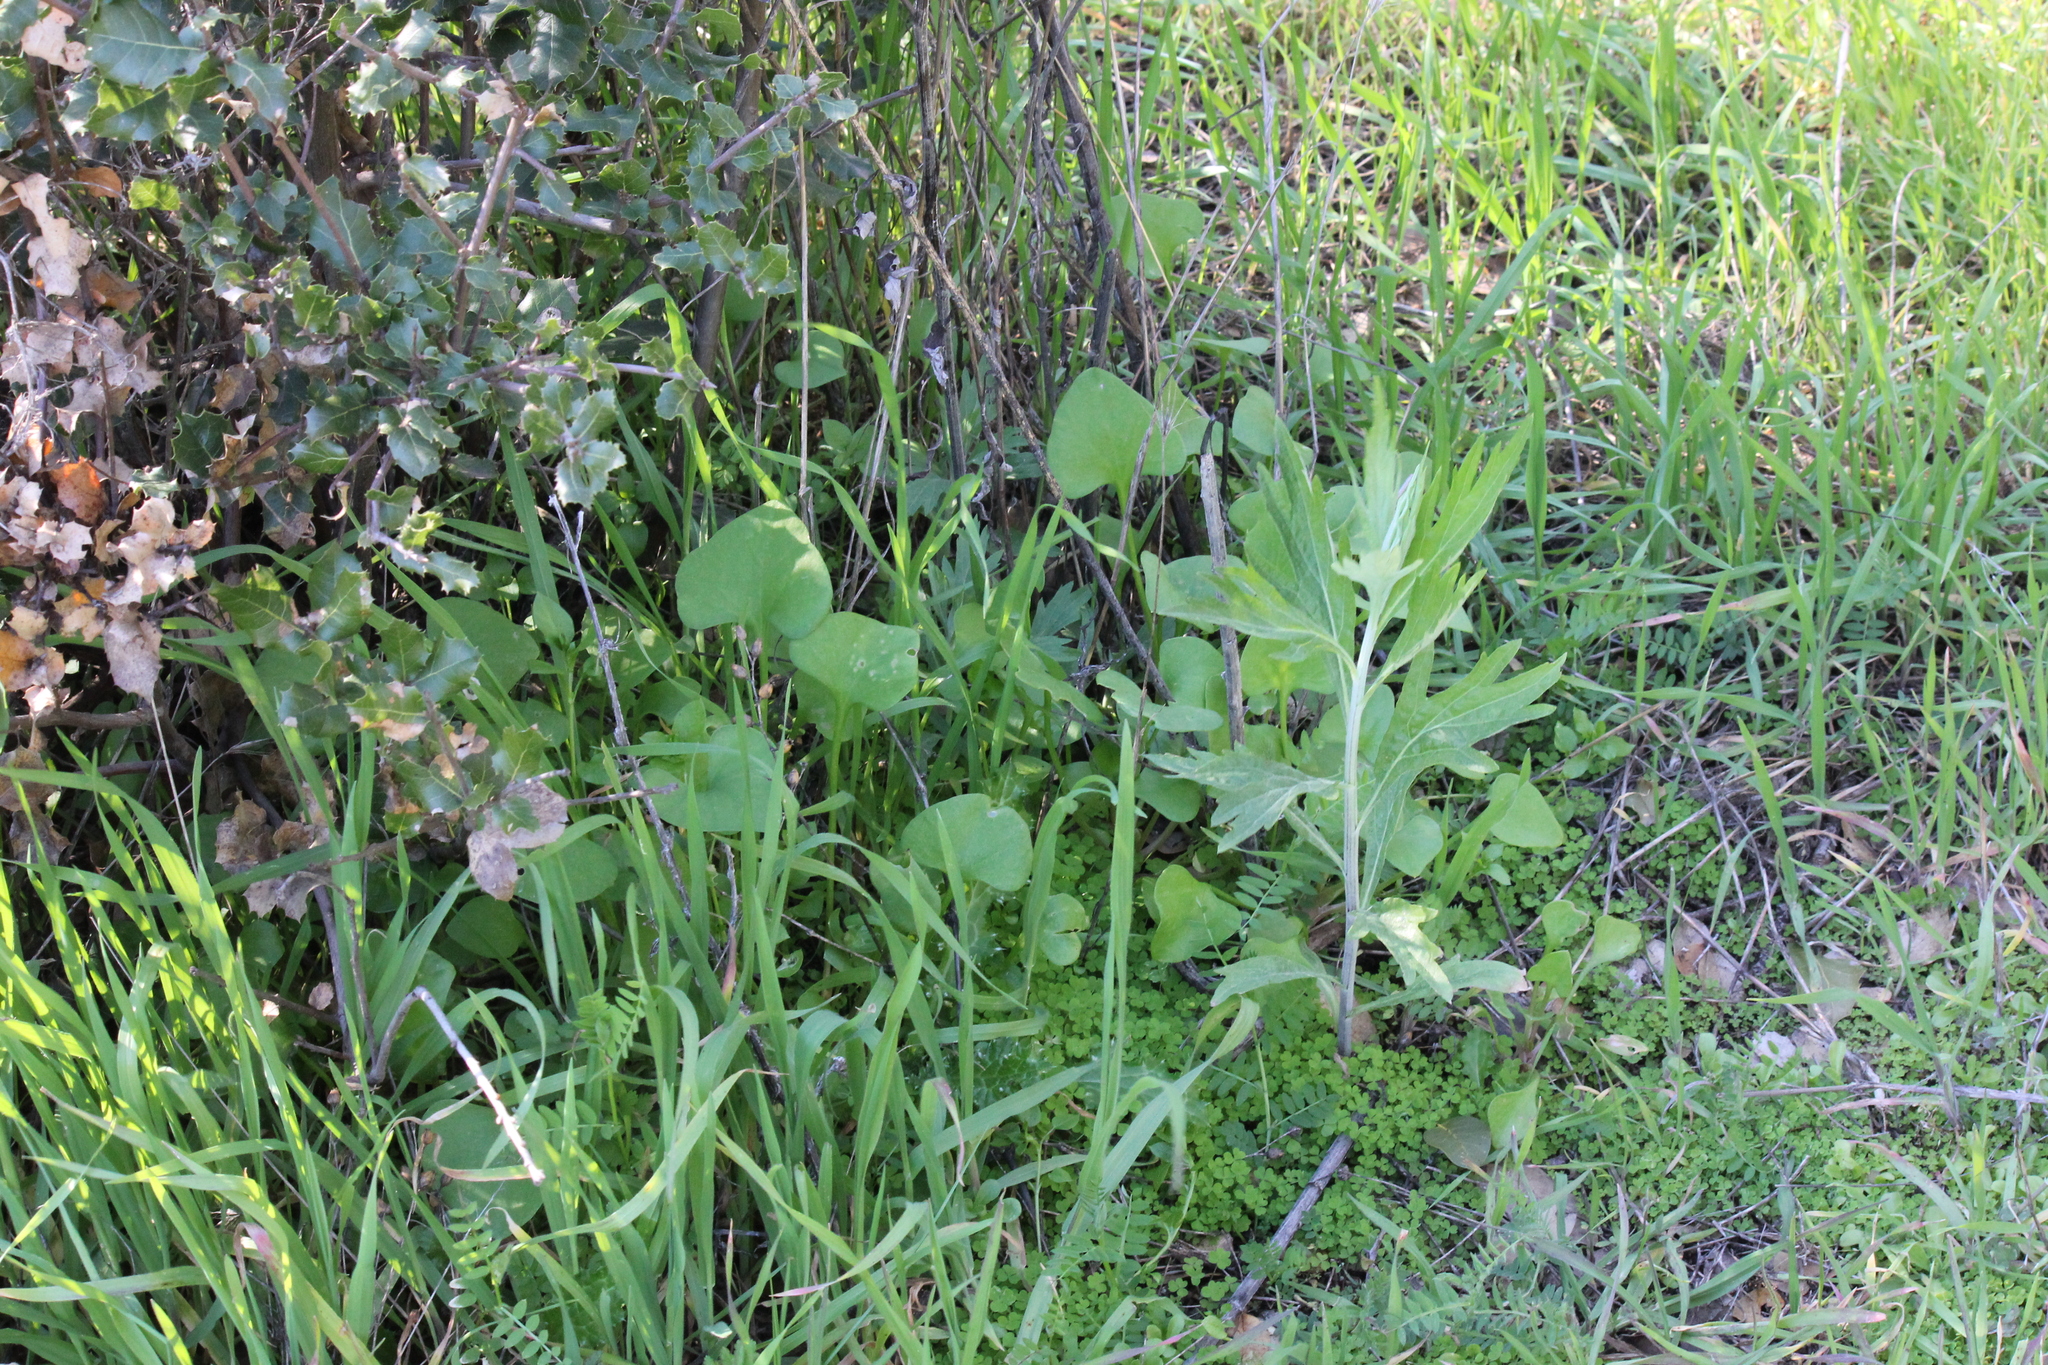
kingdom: Plantae
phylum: Tracheophyta
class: Magnoliopsida
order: Asterales
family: Asteraceae
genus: Artemisia
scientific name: Artemisia douglasiana
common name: Northwest mugwort
